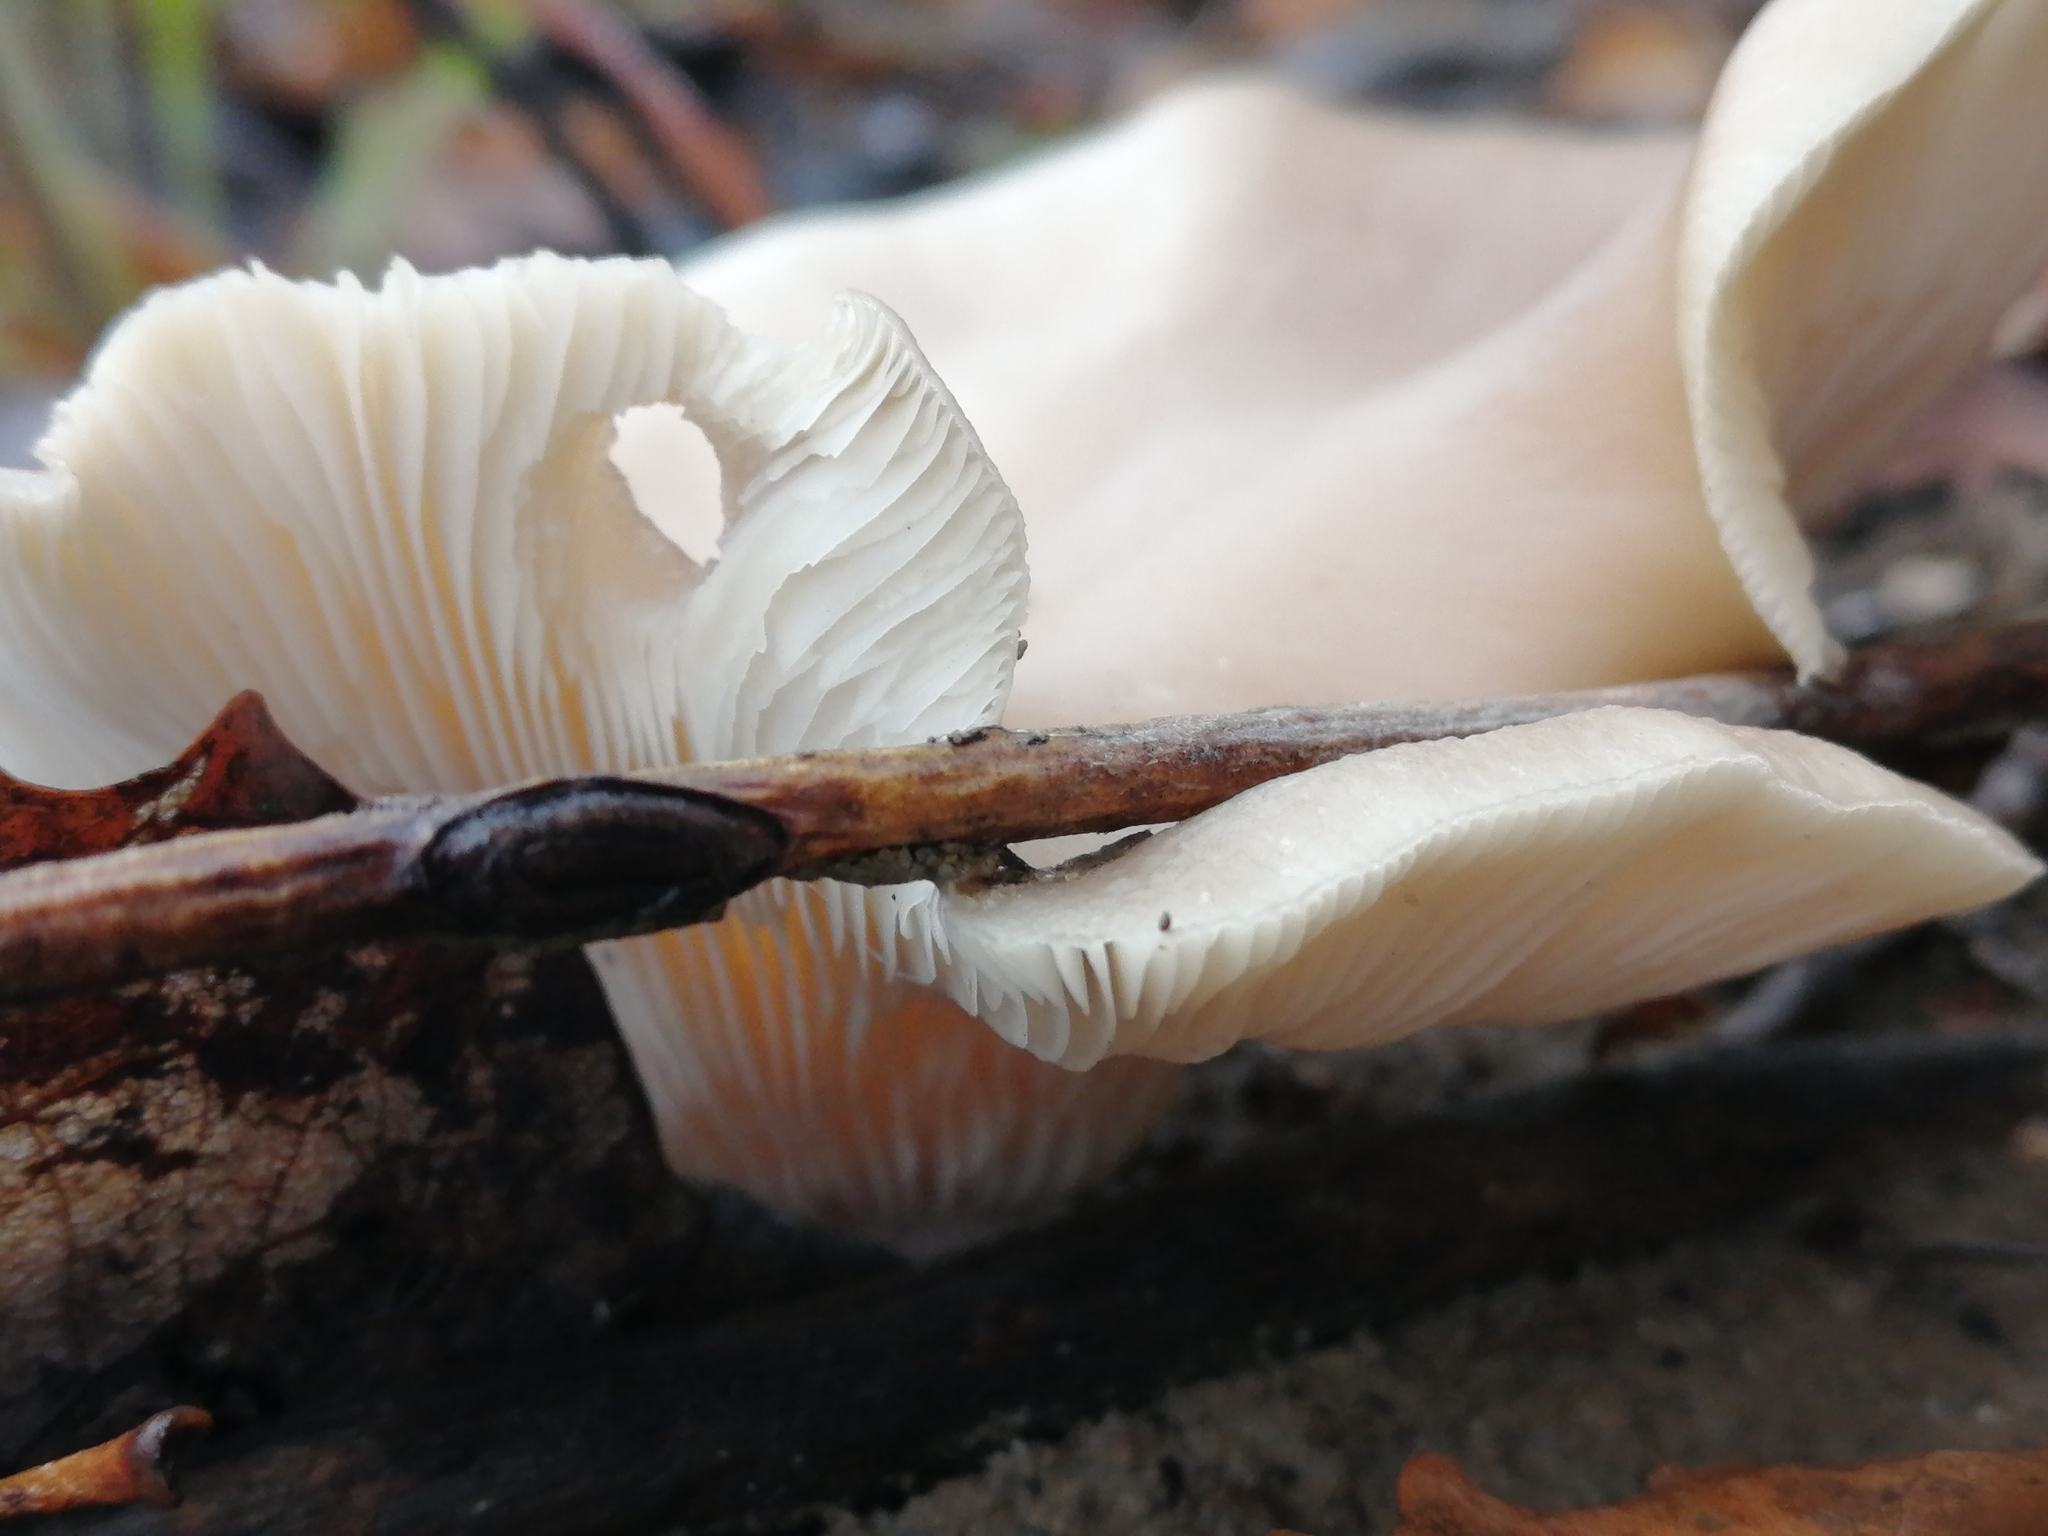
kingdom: Fungi
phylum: Basidiomycota
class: Agaricomycetes
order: Agaricales
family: Pleurotaceae
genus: Pleurotus
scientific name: Pleurotus ostreatus
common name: Oyster mushroom
